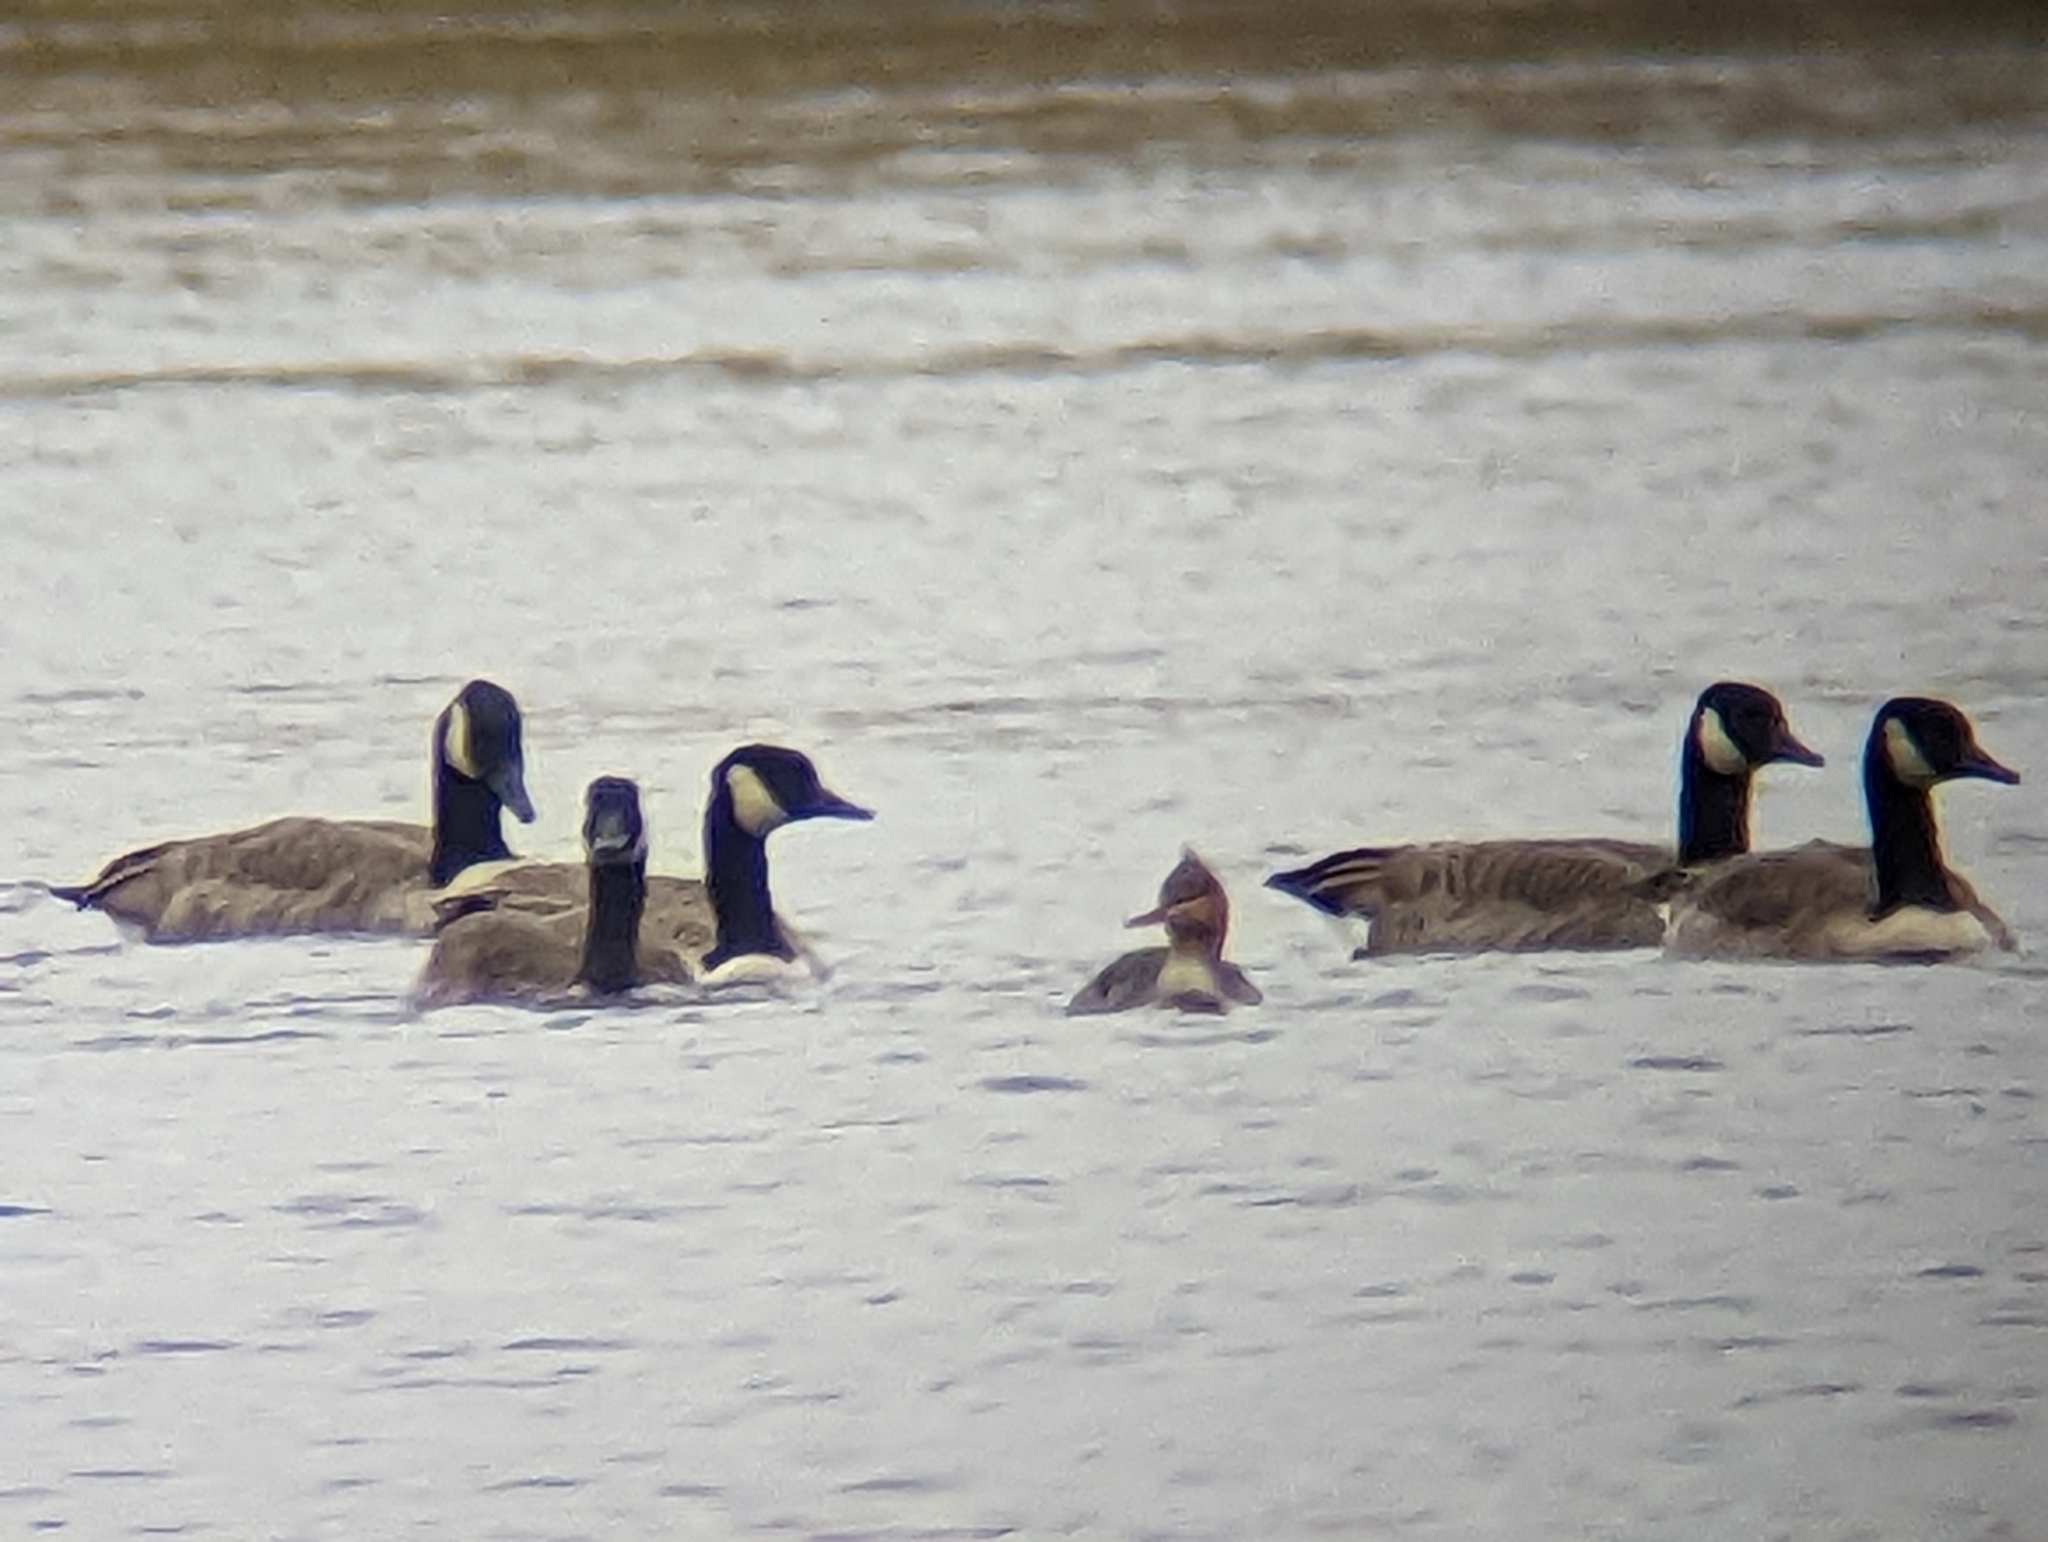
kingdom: Animalia
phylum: Chordata
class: Aves
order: Anseriformes
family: Anatidae
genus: Mergus
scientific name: Mergus serrator
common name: Red-breasted merganser
